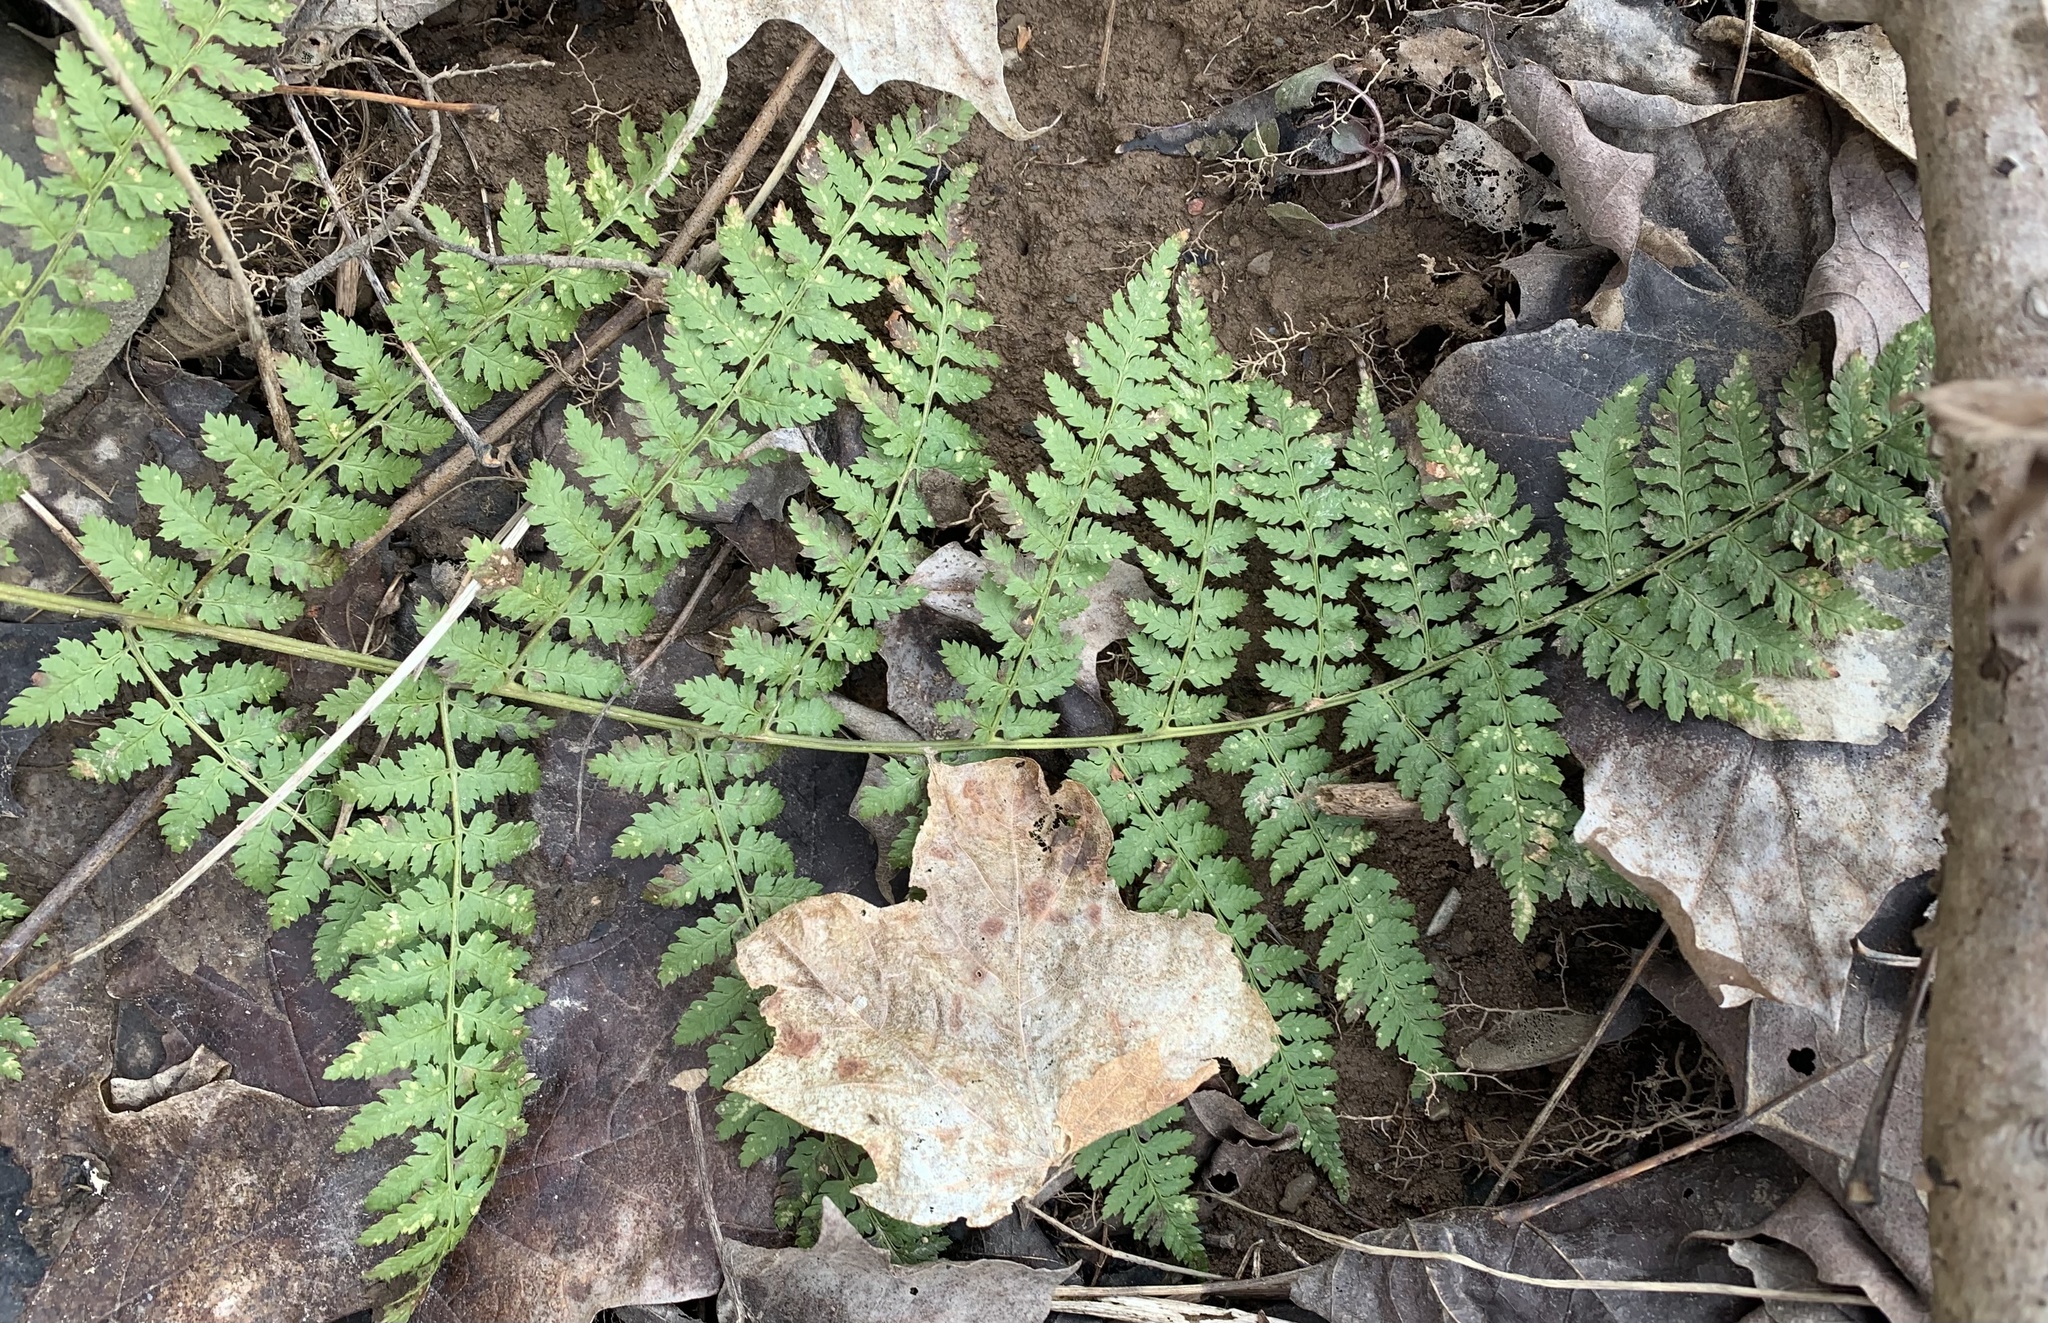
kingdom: Plantae
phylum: Tracheophyta
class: Polypodiopsida
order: Polypodiales
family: Dryopteridaceae
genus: Dryopteris
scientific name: Dryopteris intermedia
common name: Evergreen wood fern
